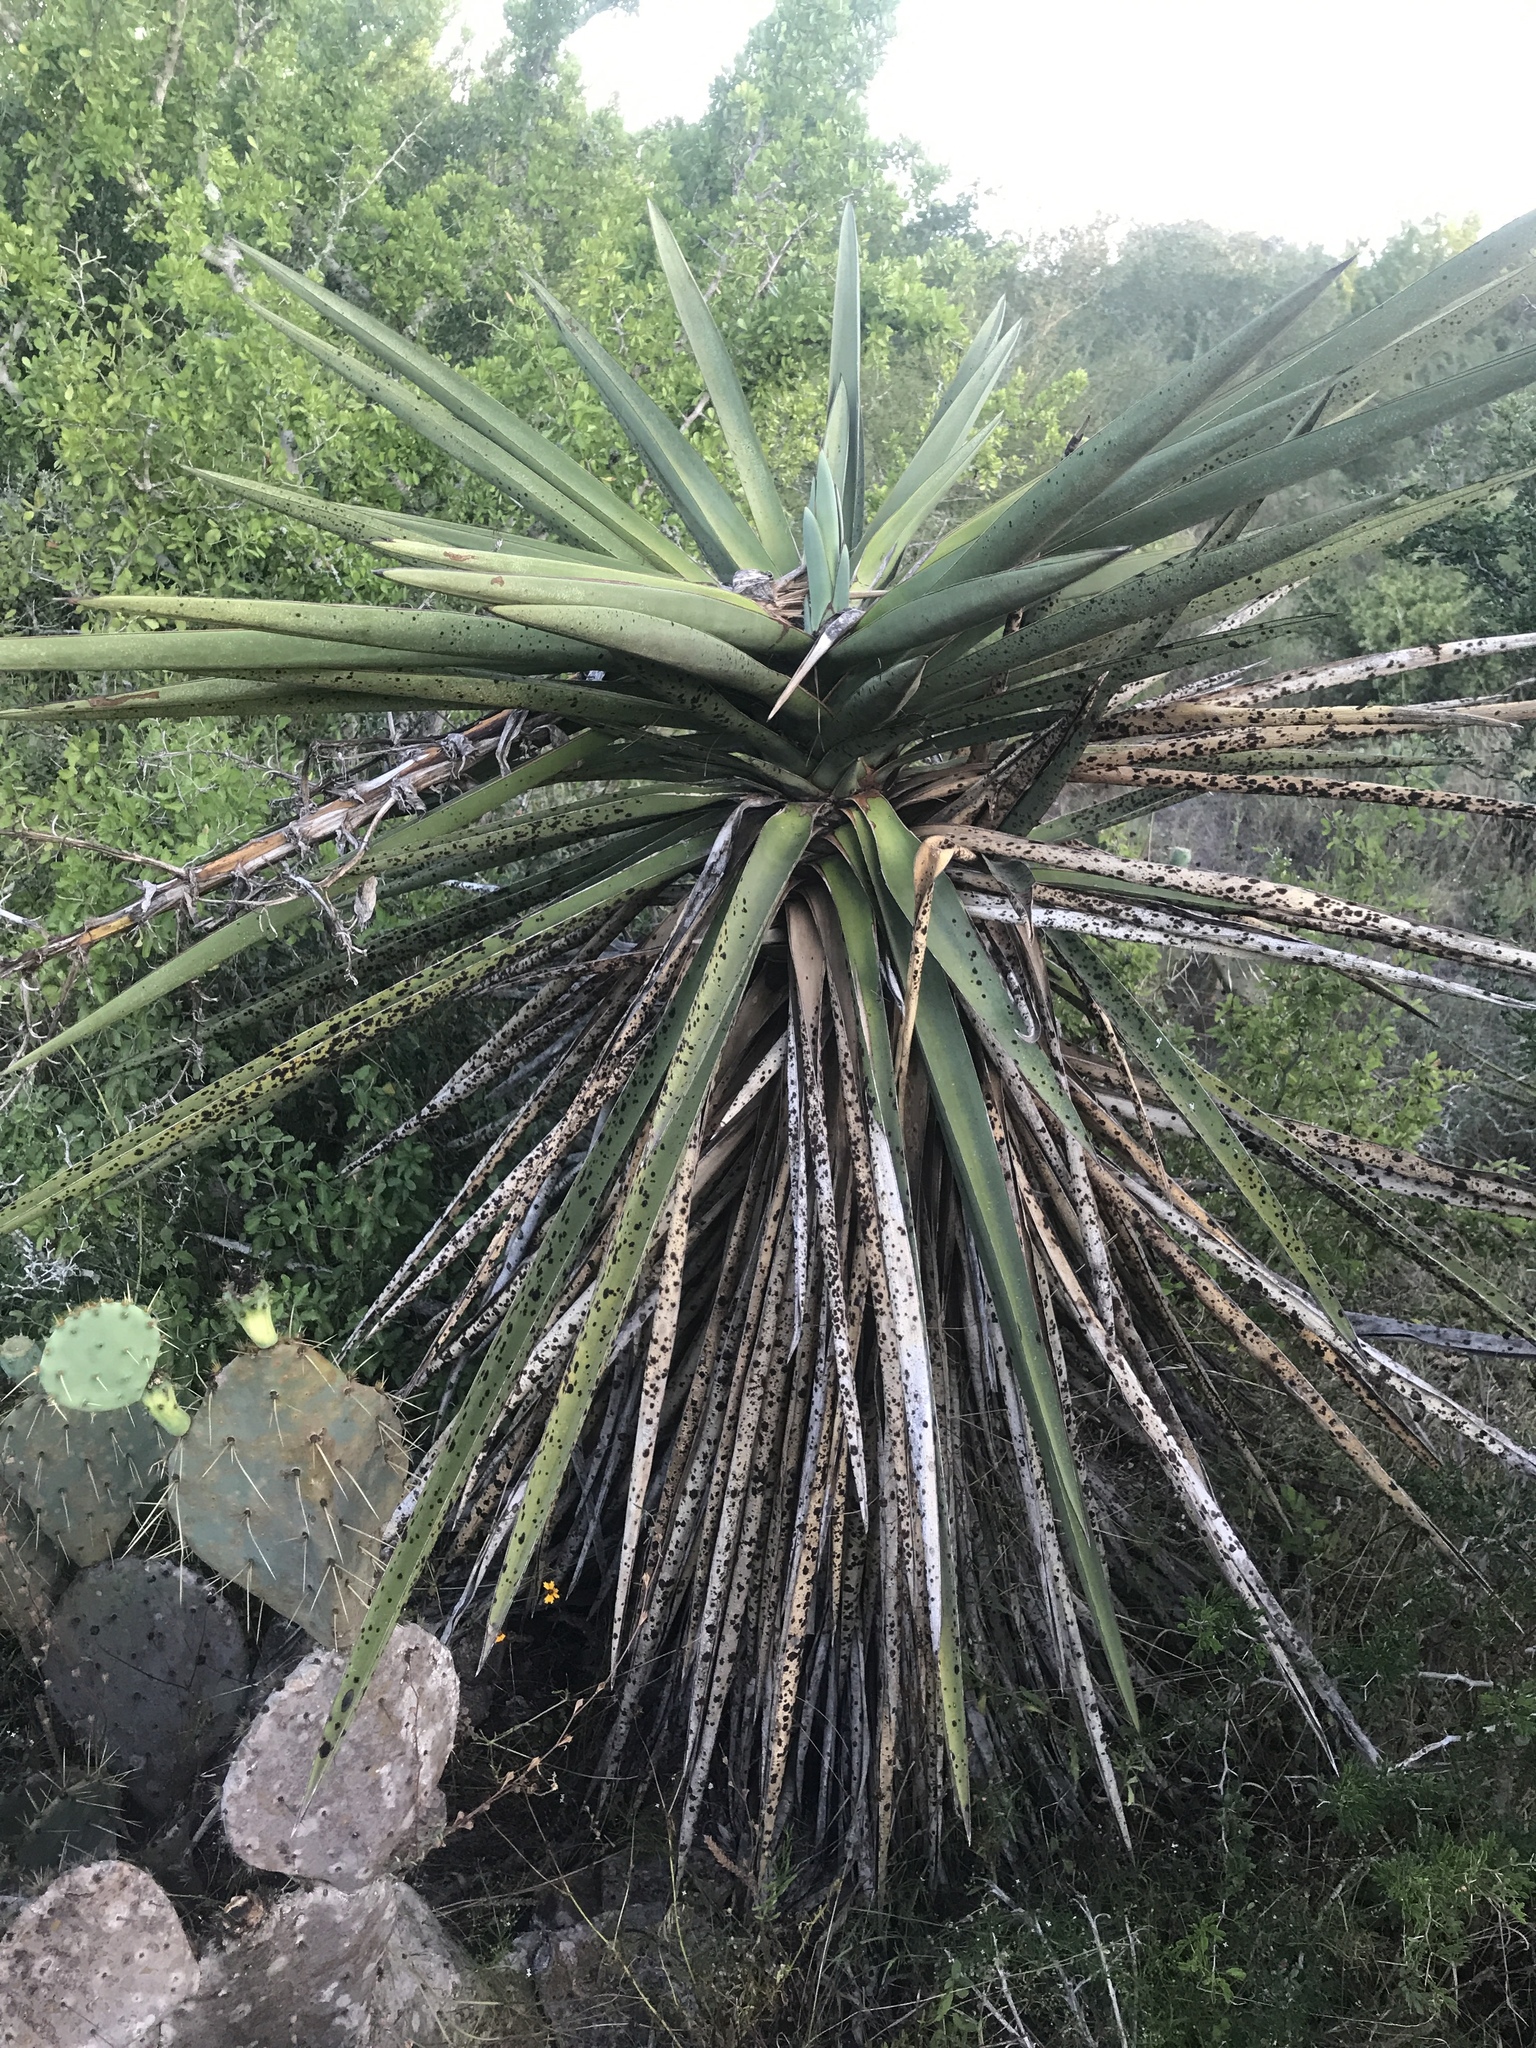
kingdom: Plantae
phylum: Tracheophyta
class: Liliopsida
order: Asparagales
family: Asparagaceae
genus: Yucca
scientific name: Yucca treculiana
